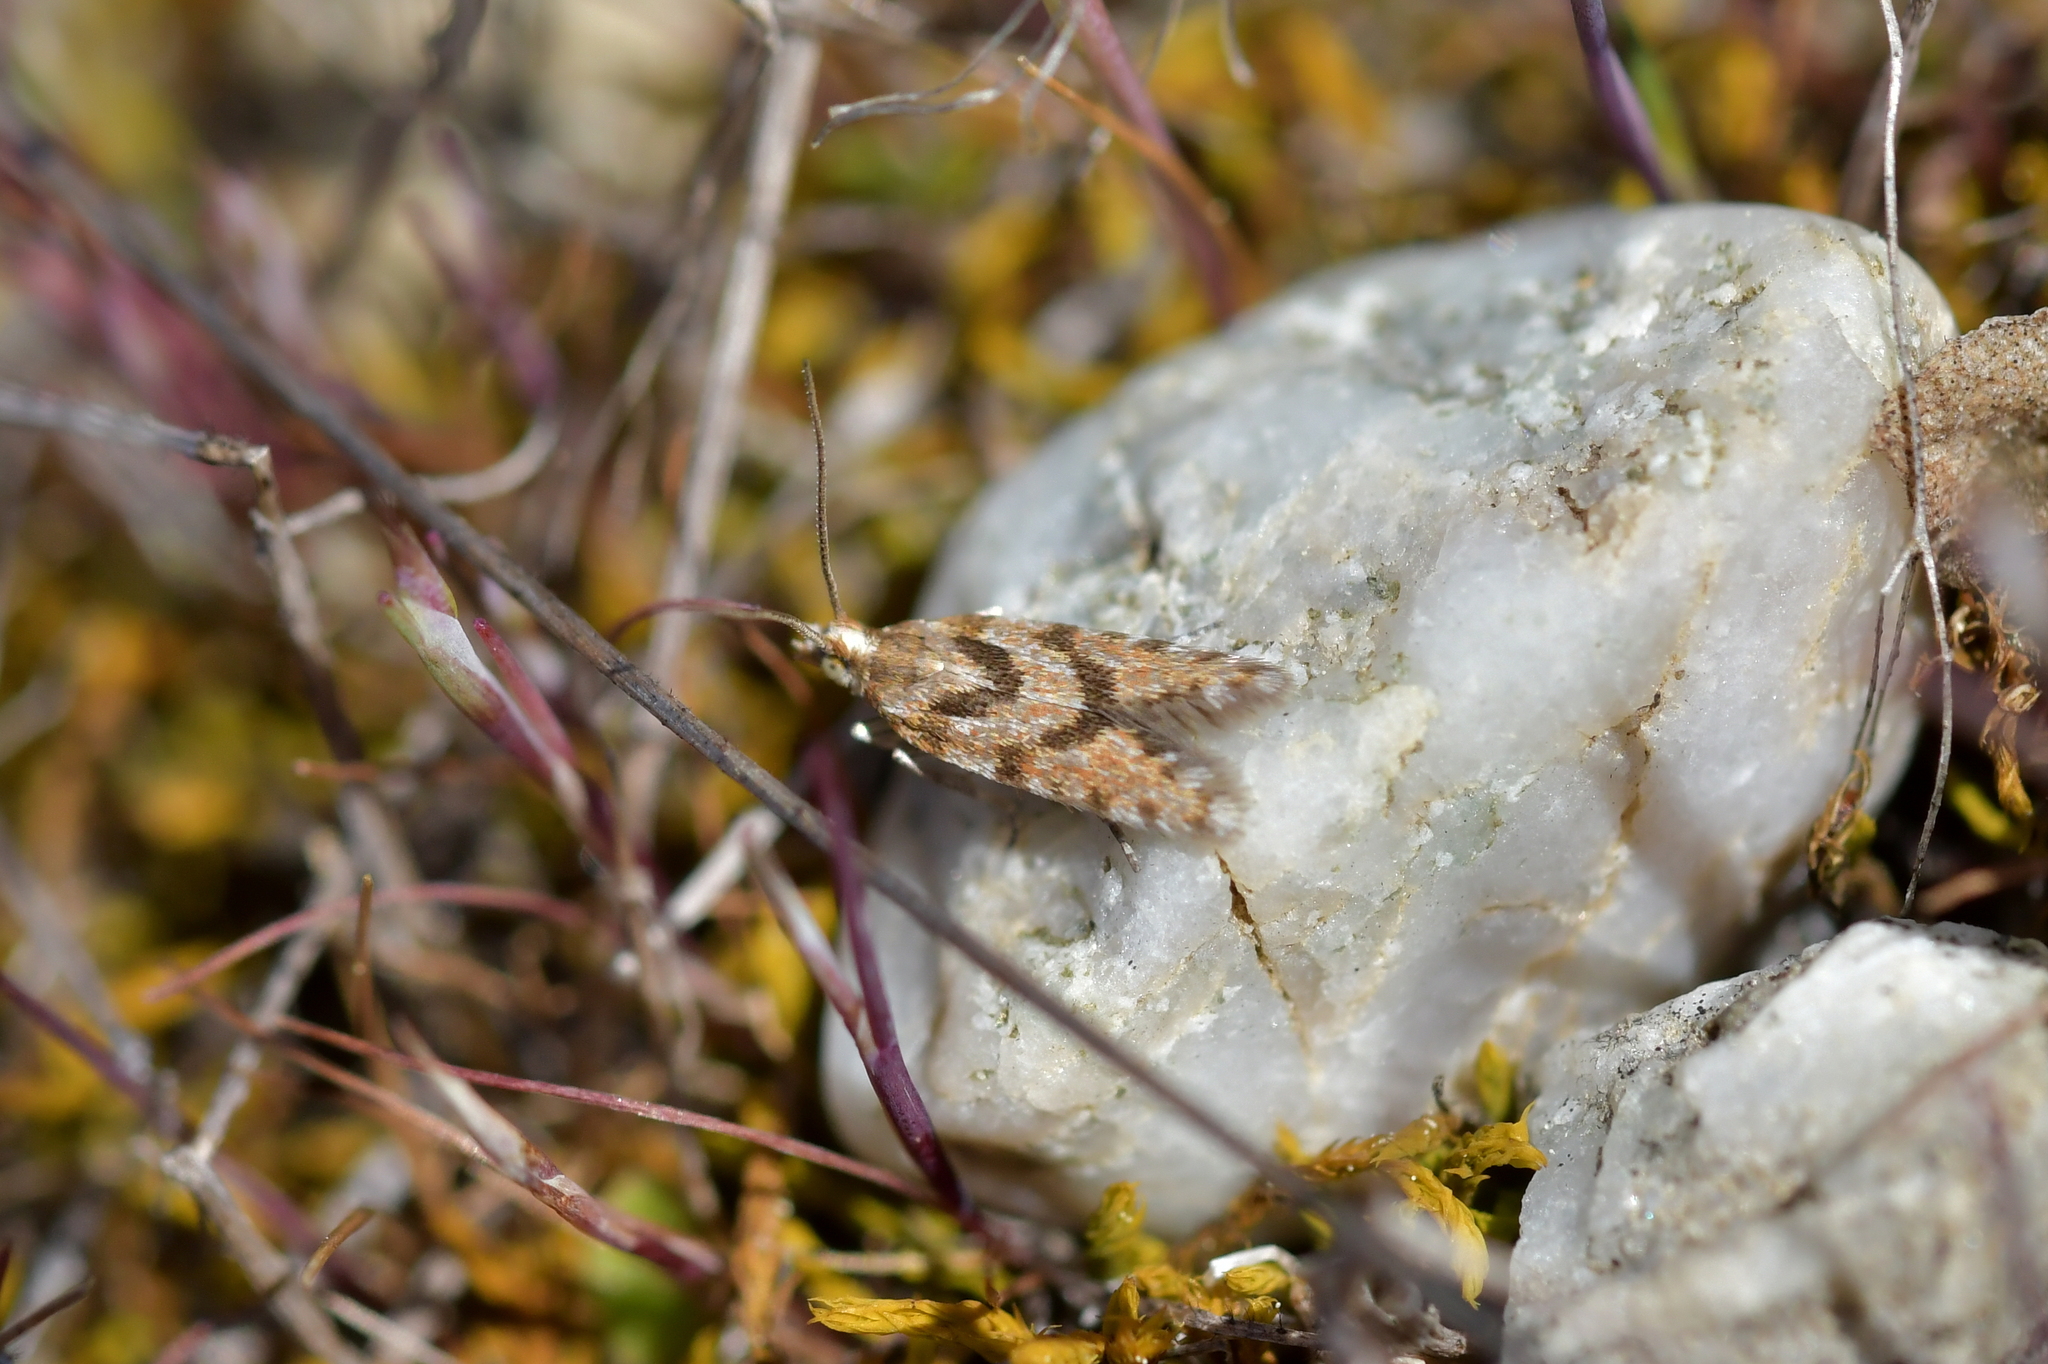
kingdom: Animalia
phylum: Arthropoda
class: Insecta
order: Lepidoptera
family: Tortricidae
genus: Eurythecta
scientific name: Eurythecta zelaea
